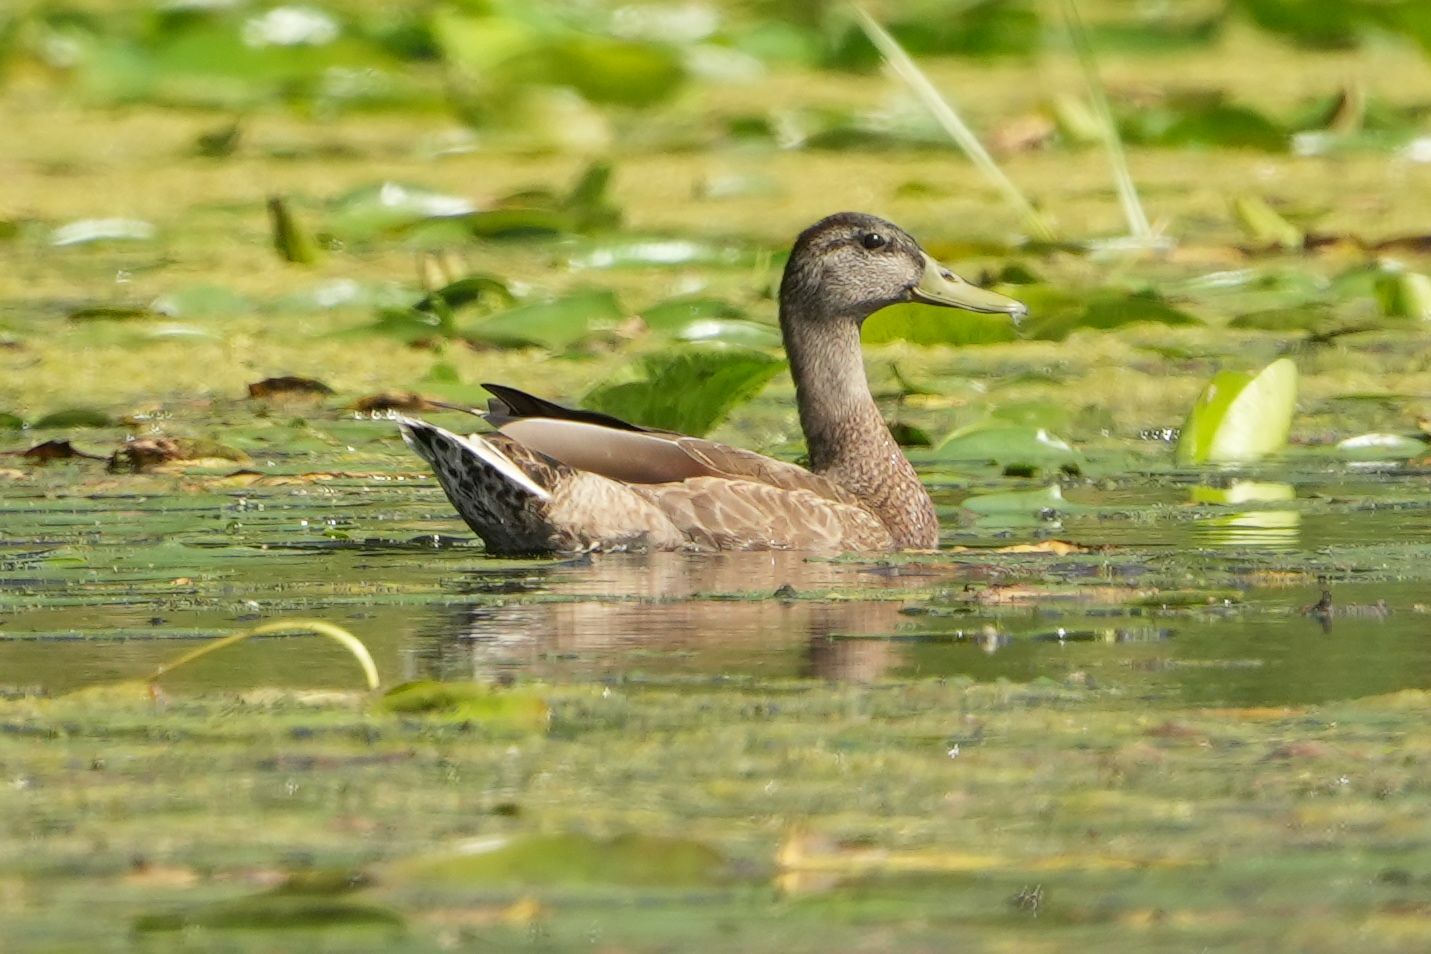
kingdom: Animalia
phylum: Chordata
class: Aves
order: Anseriformes
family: Anatidae
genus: Anas
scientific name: Anas platyrhynchos
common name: Mallard
